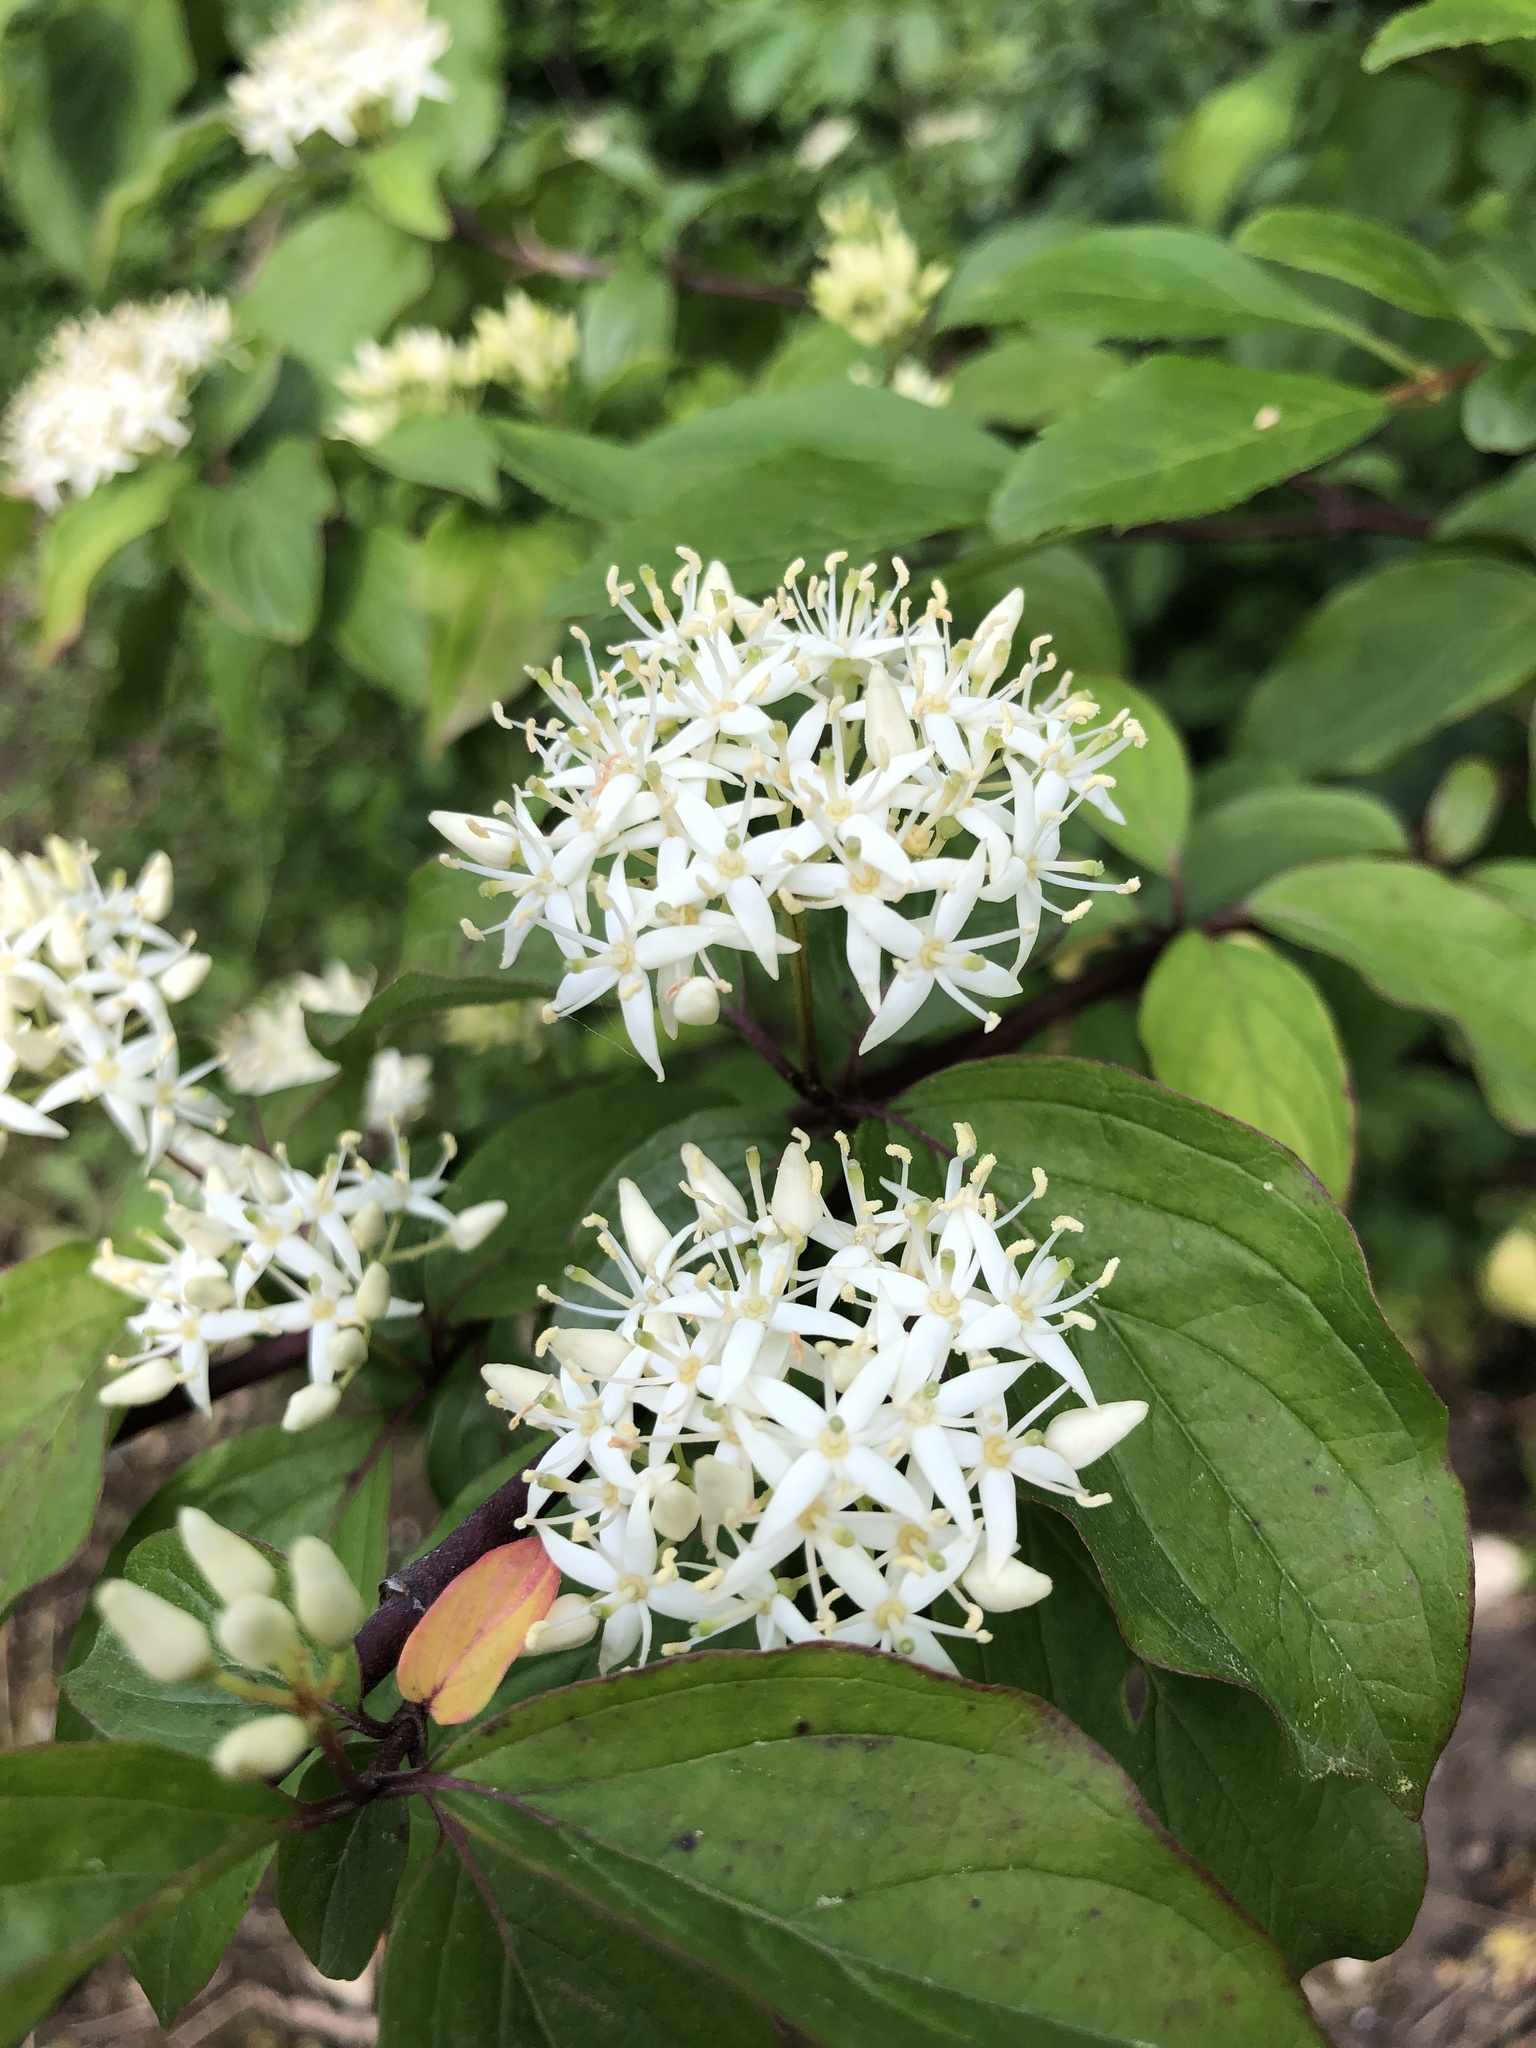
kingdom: Plantae
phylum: Tracheophyta
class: Magnoliopsida
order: Cornales
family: Cornaceae
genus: Cornus
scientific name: Cornus sanguinea
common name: Dogwood
